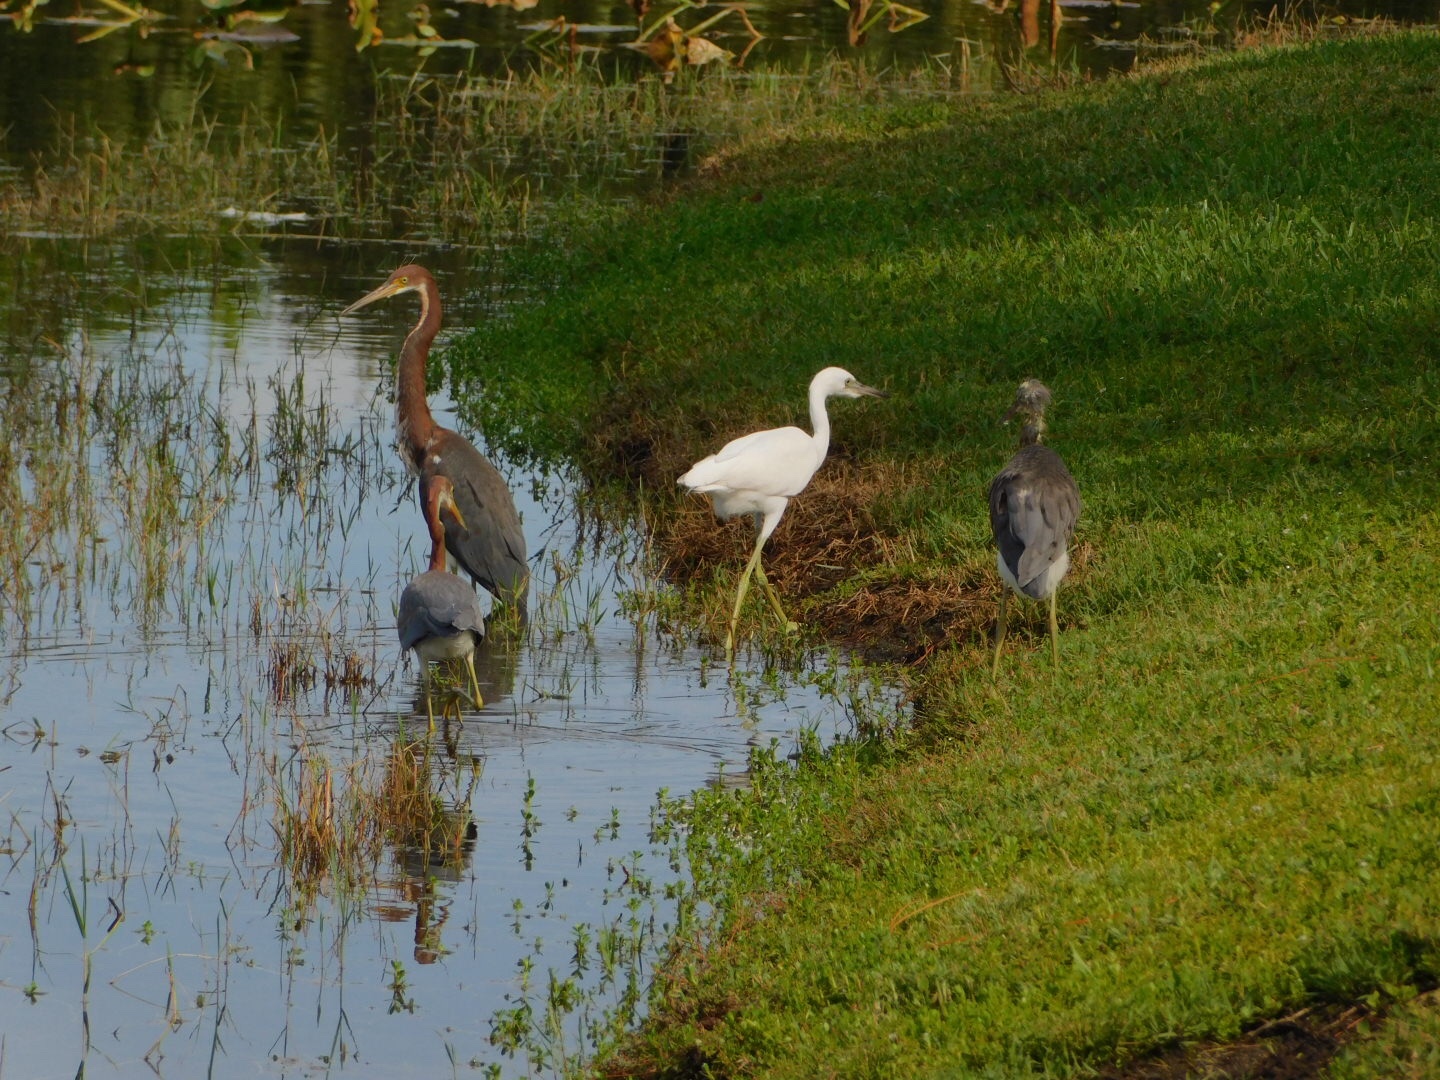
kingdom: Animalia
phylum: Chordata
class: Aves
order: Pelecaniformes
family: Ardeidae
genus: Egretta
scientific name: Egretta caerulea
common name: Little blue heron
